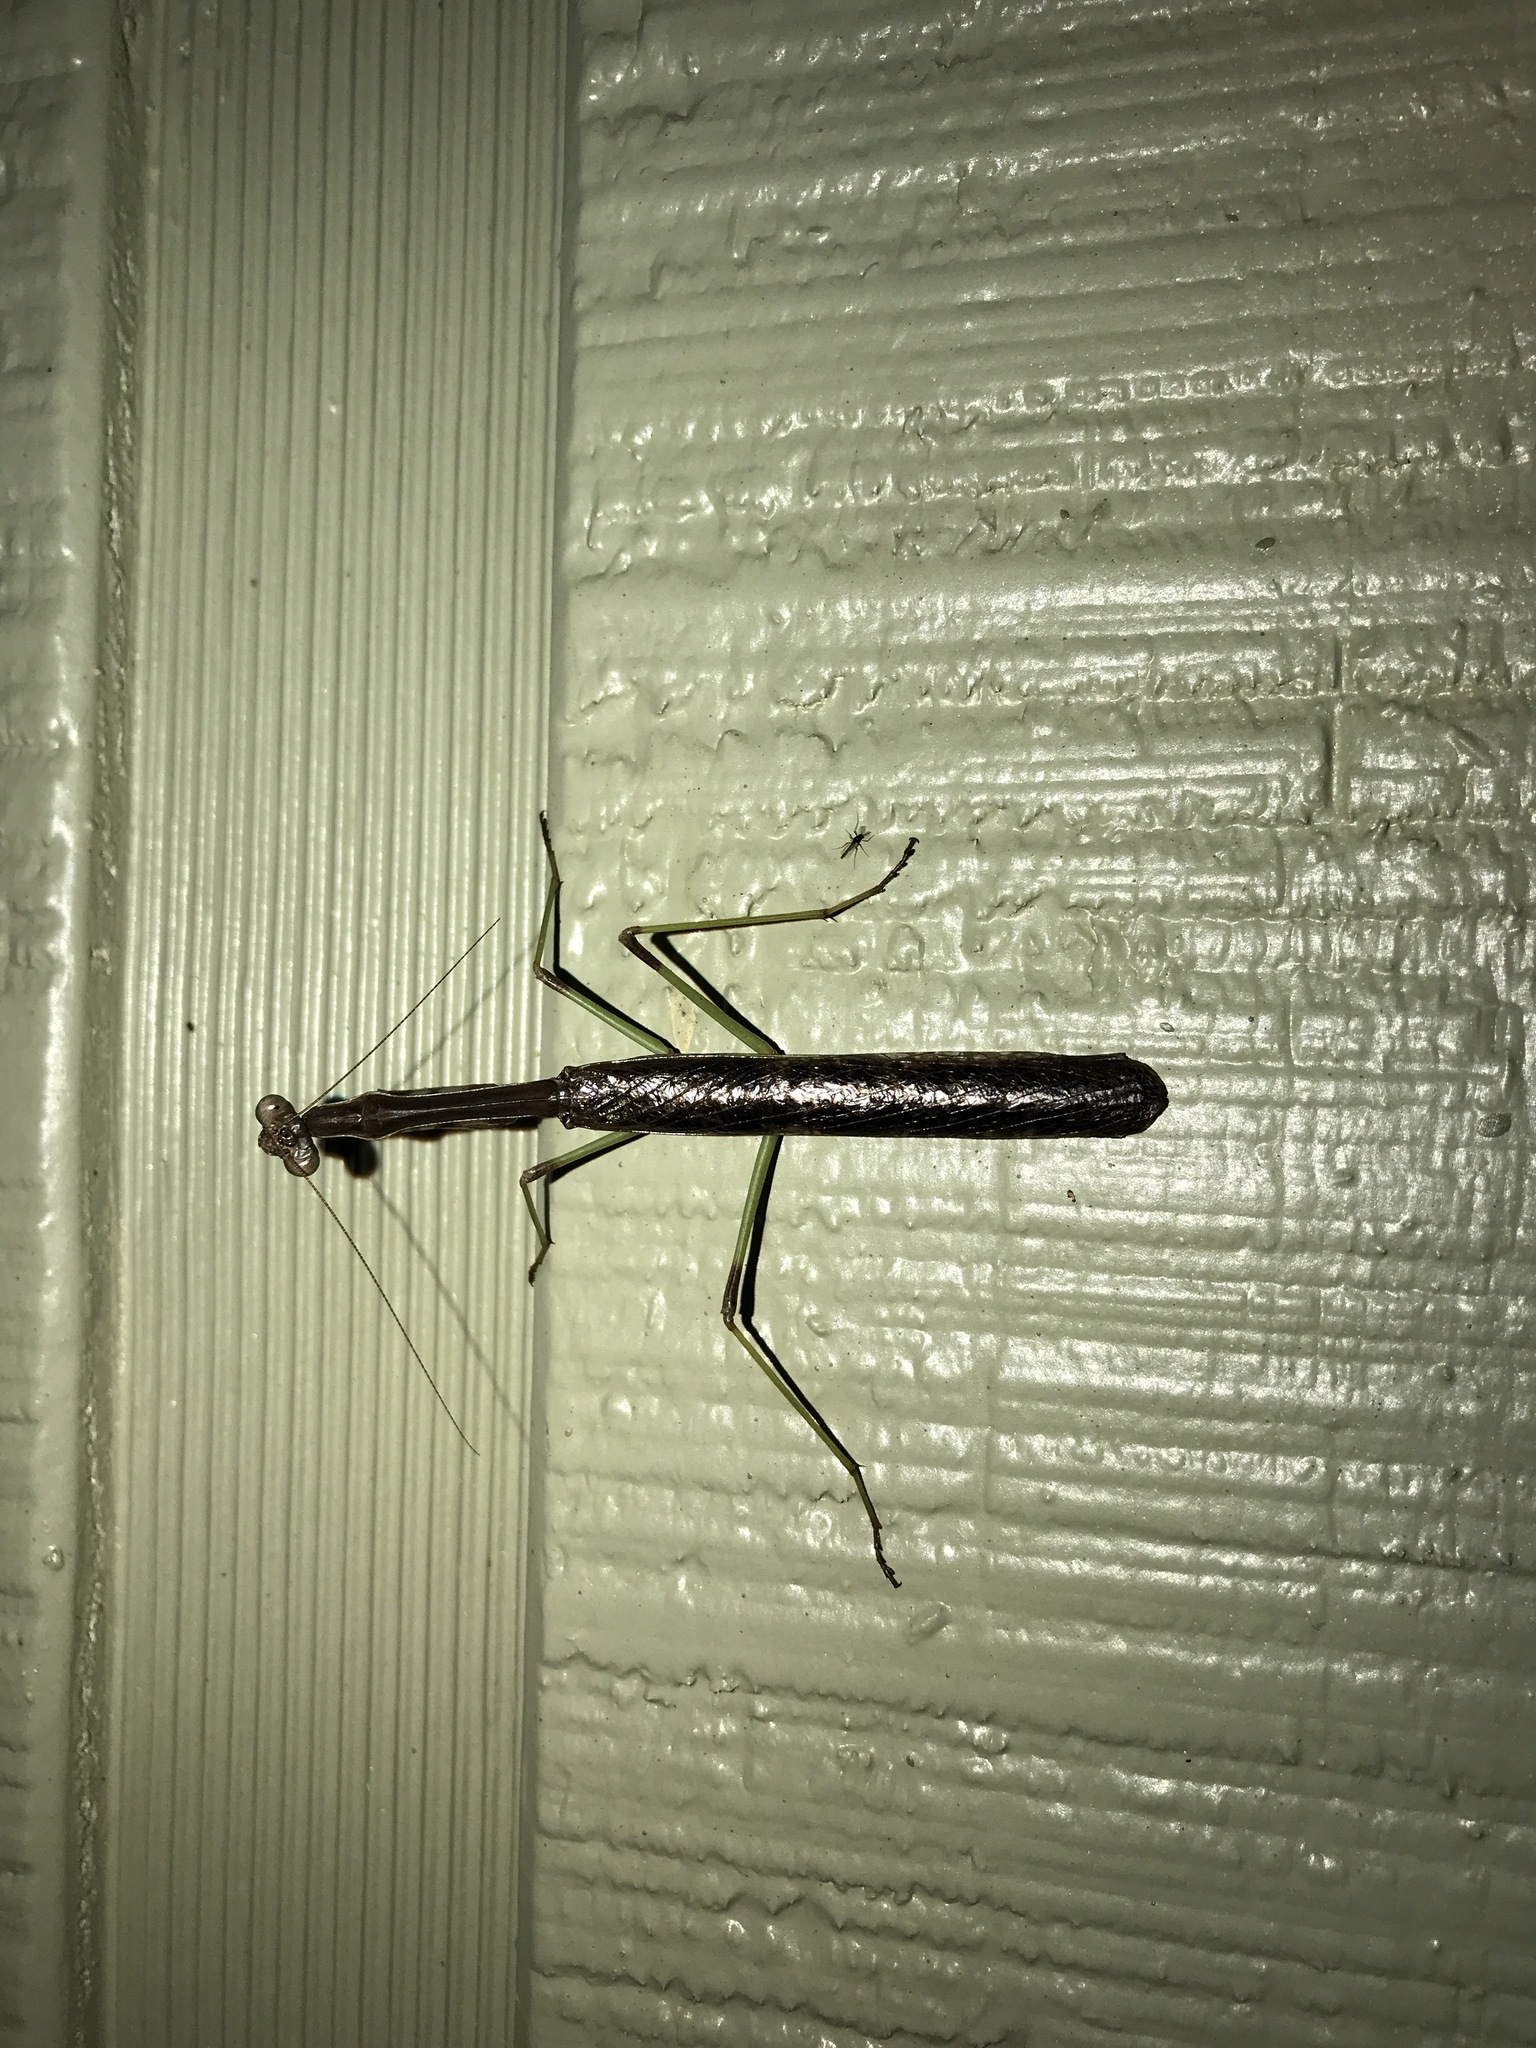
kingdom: Animalia
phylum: Arthropoda
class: Insecta
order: Mantodea
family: Mantidae
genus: Stagmomantis
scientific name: Stagmomantis carolina
